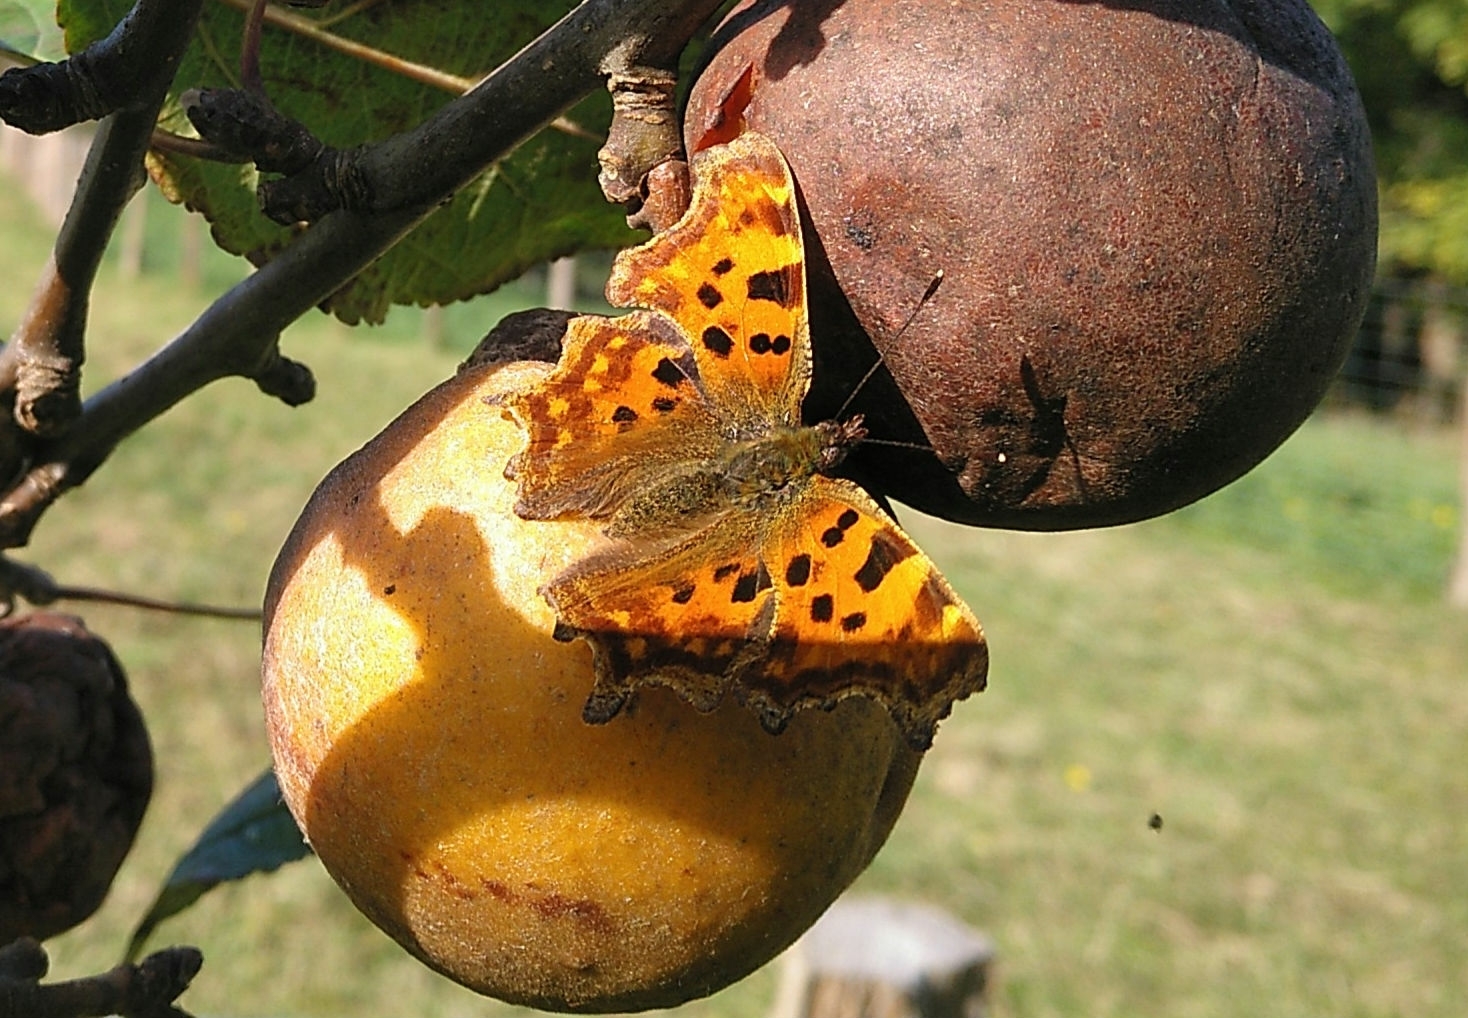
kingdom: Animalia
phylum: Arthropoda
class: Insecta
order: Lepidoptera
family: Nymphalidae
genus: Polygonia
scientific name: Polygonia c-album
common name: Comma
